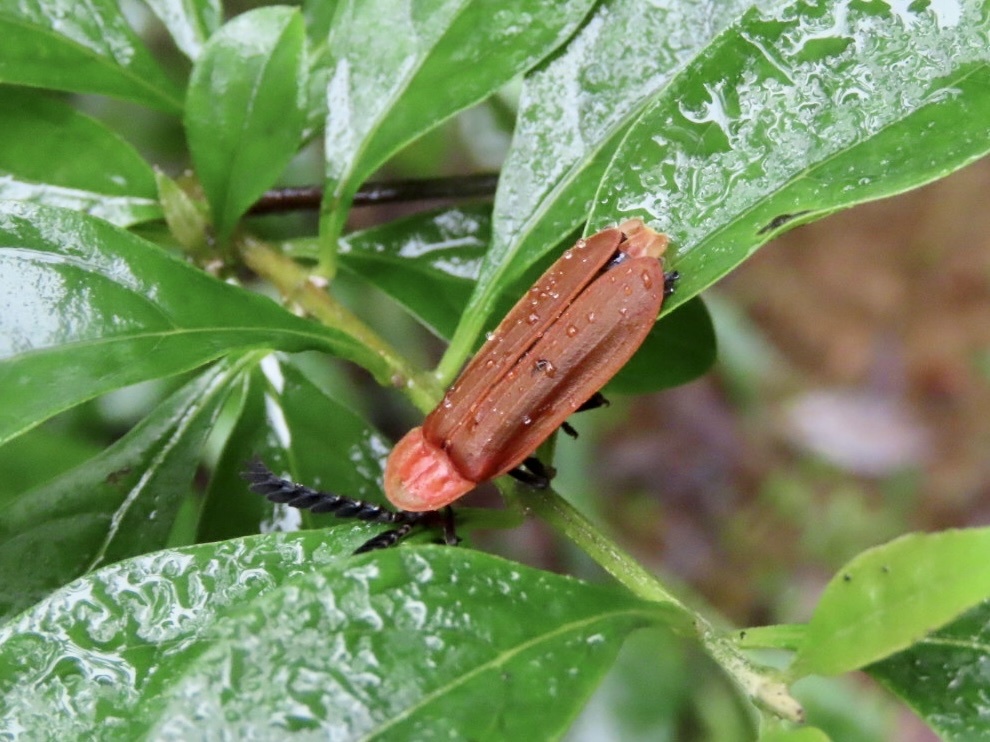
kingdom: Animalia
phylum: Arthropoda
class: Insecta
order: Coleoptera
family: Lampyridae
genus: Vesta
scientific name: Vesta sinuata
